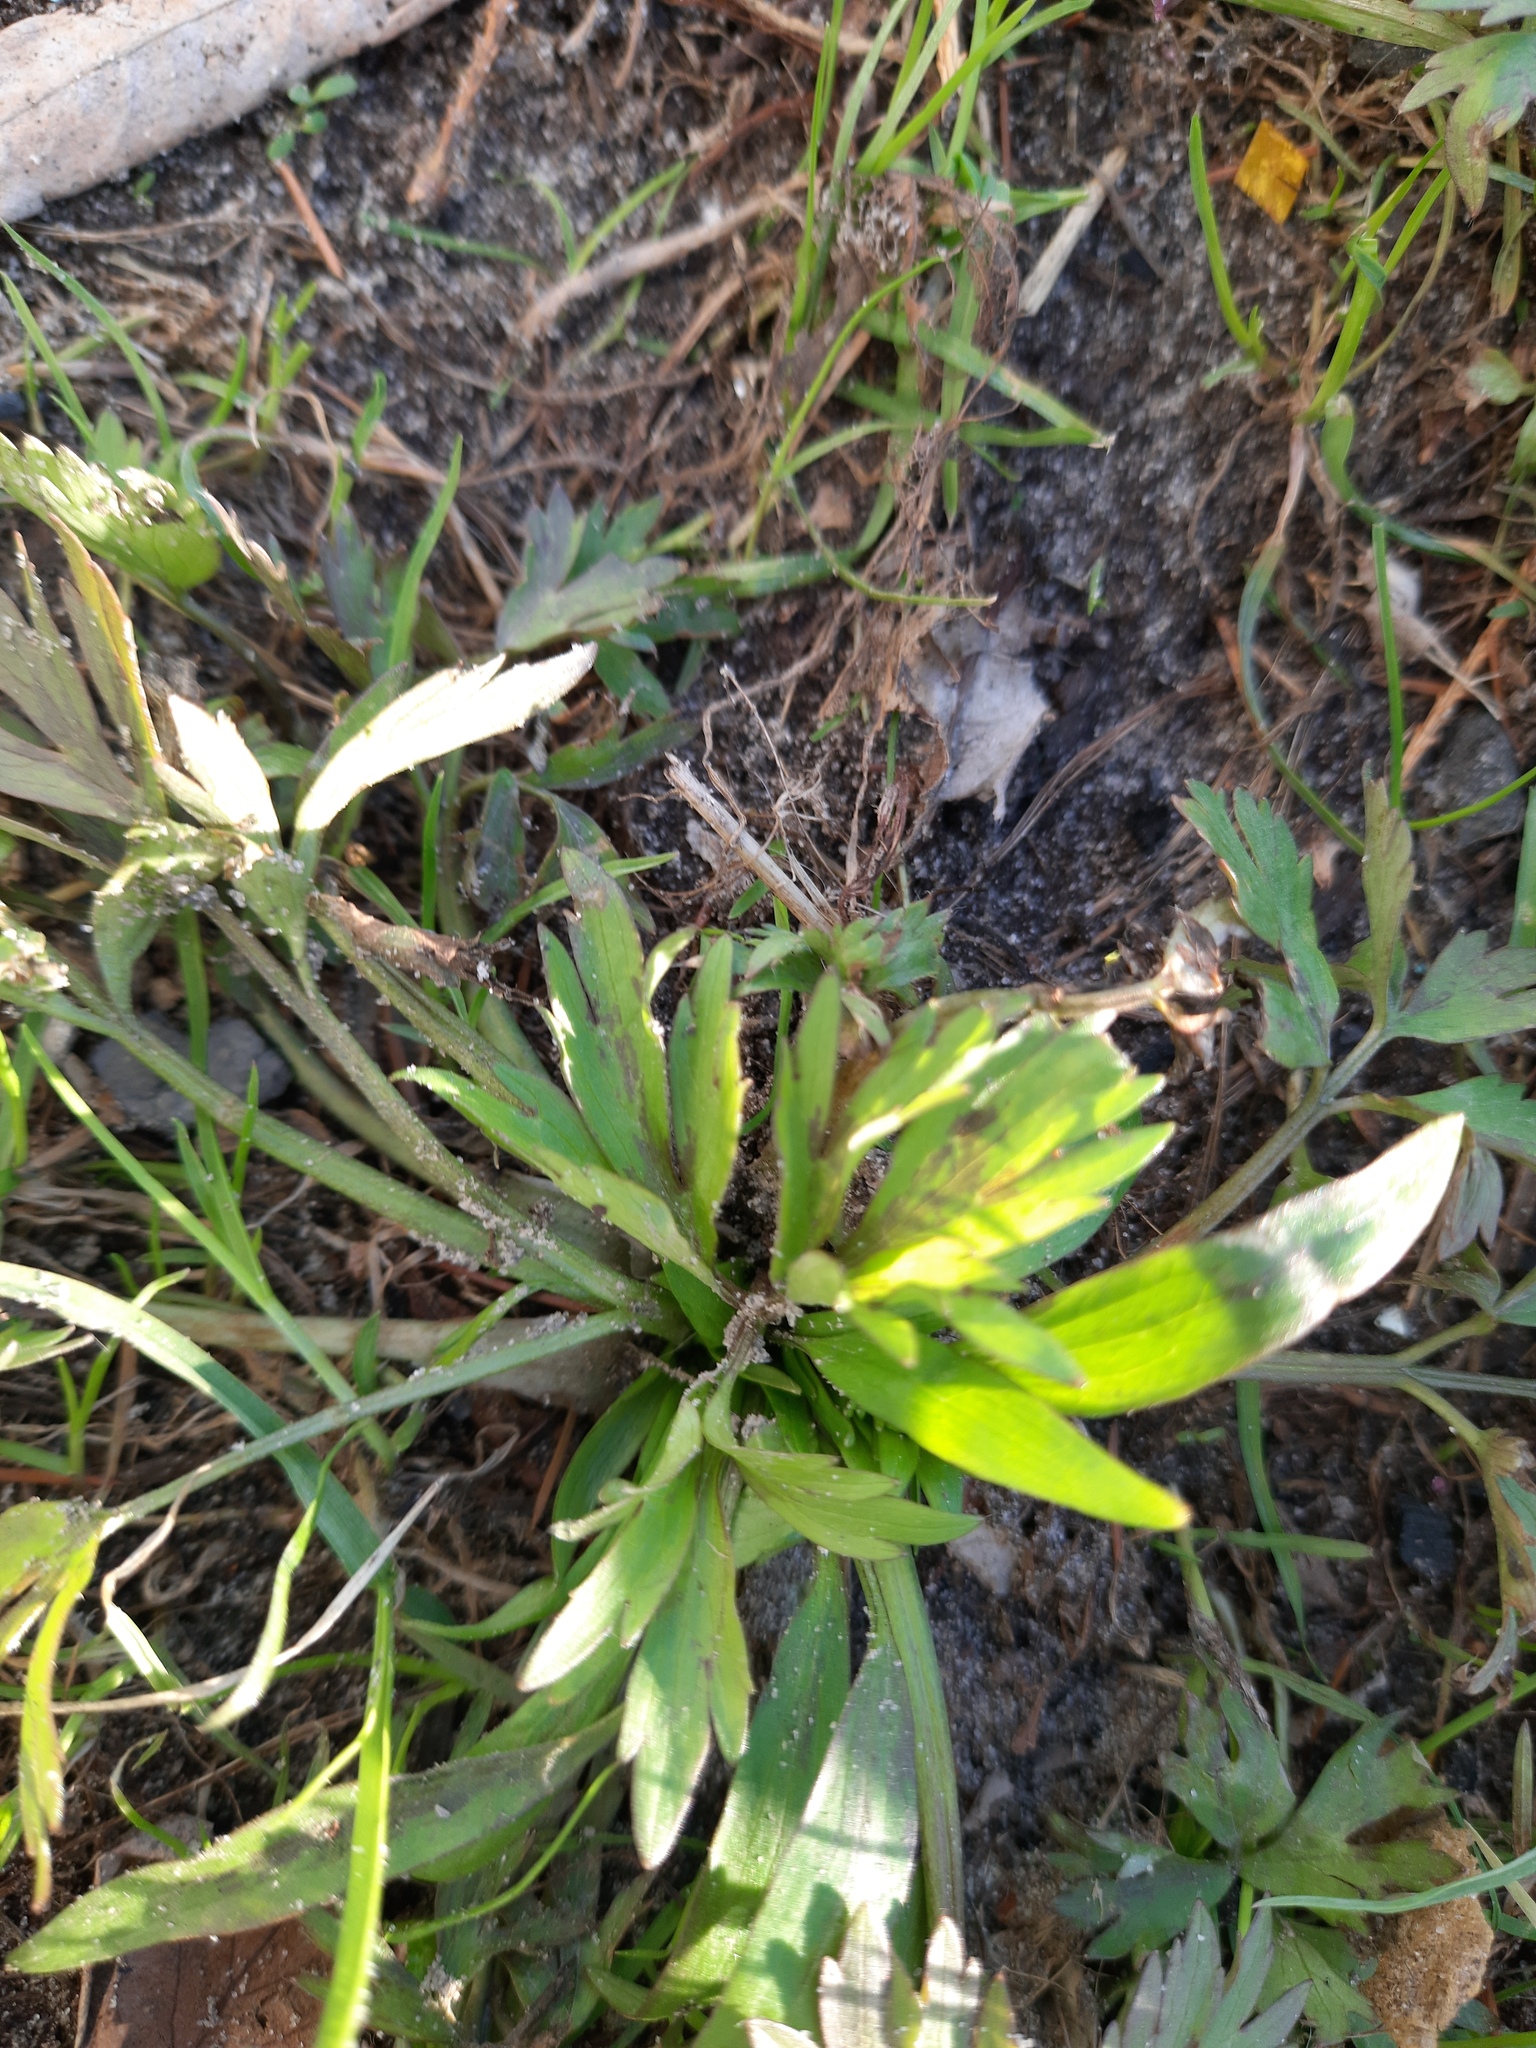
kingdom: Plantae
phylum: Tracheophyta
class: Magnoliopsida
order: Ranunculales
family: Ranunculaceae
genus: Ranunculus
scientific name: Ranunculus repens
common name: Creeping buttercup
